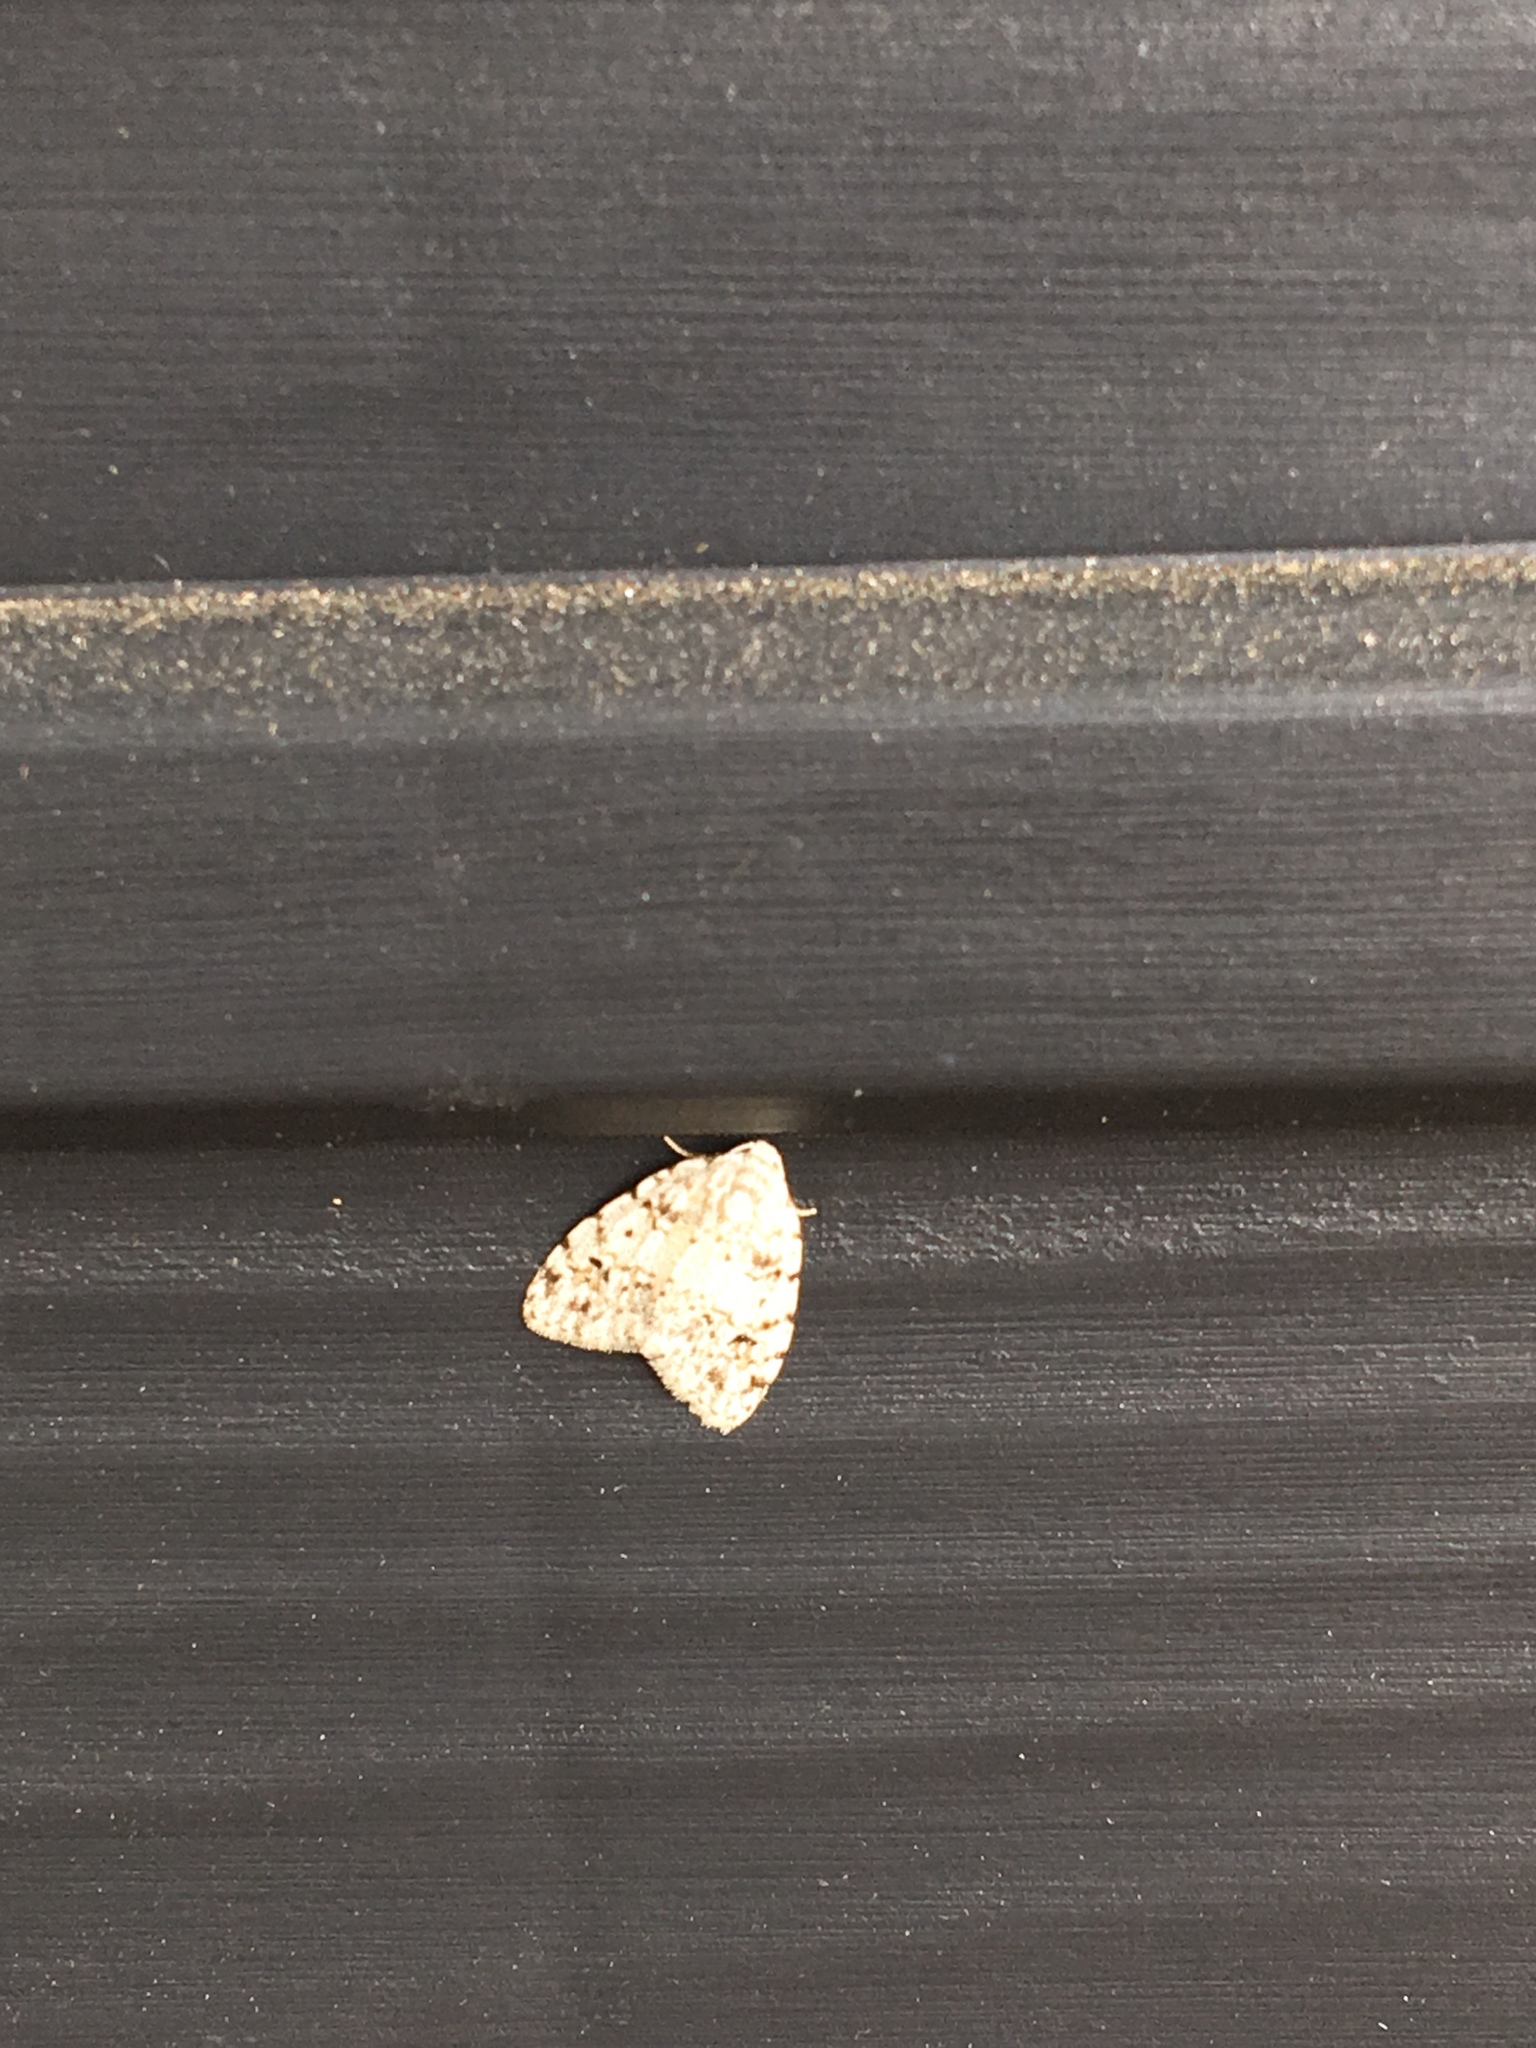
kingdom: Animalia
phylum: Arthropoda
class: Insecta
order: Lepidoptera
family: Erebidae
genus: Clemensia
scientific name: Clemensia albata
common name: Little white lichen moth
